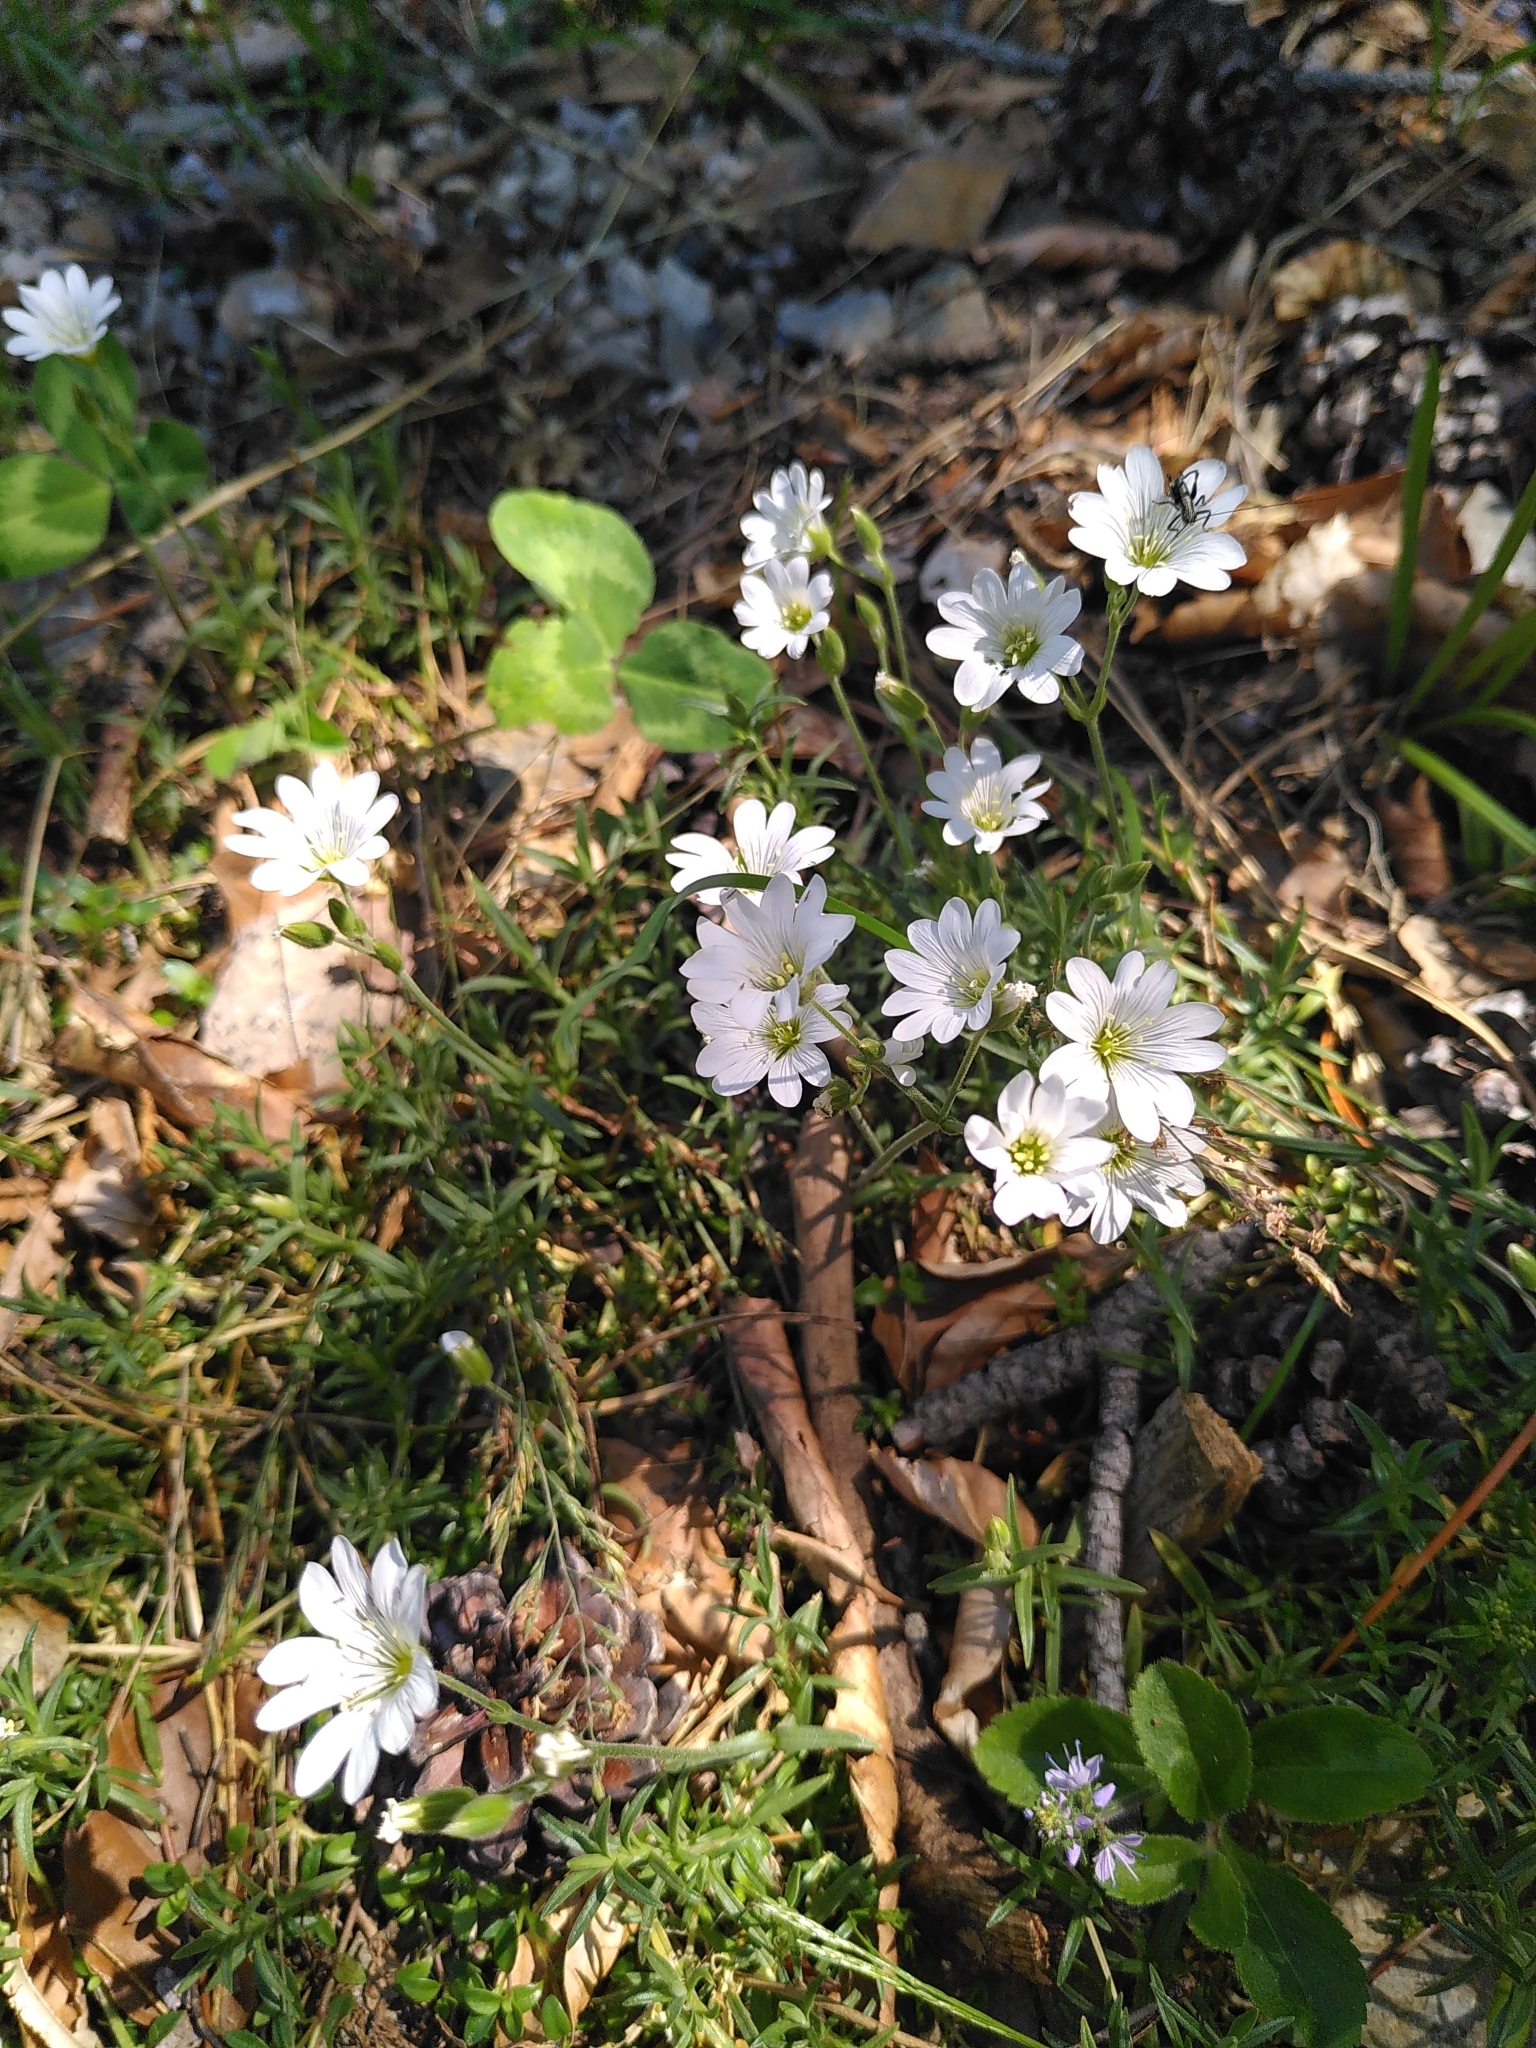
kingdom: Plantae
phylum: Tracheophyta
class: Magnoliopsida
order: Caryophyllales
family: Caryophyllaceae
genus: Cerastium
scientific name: Cerastium arvense
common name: Field mouse-ear
